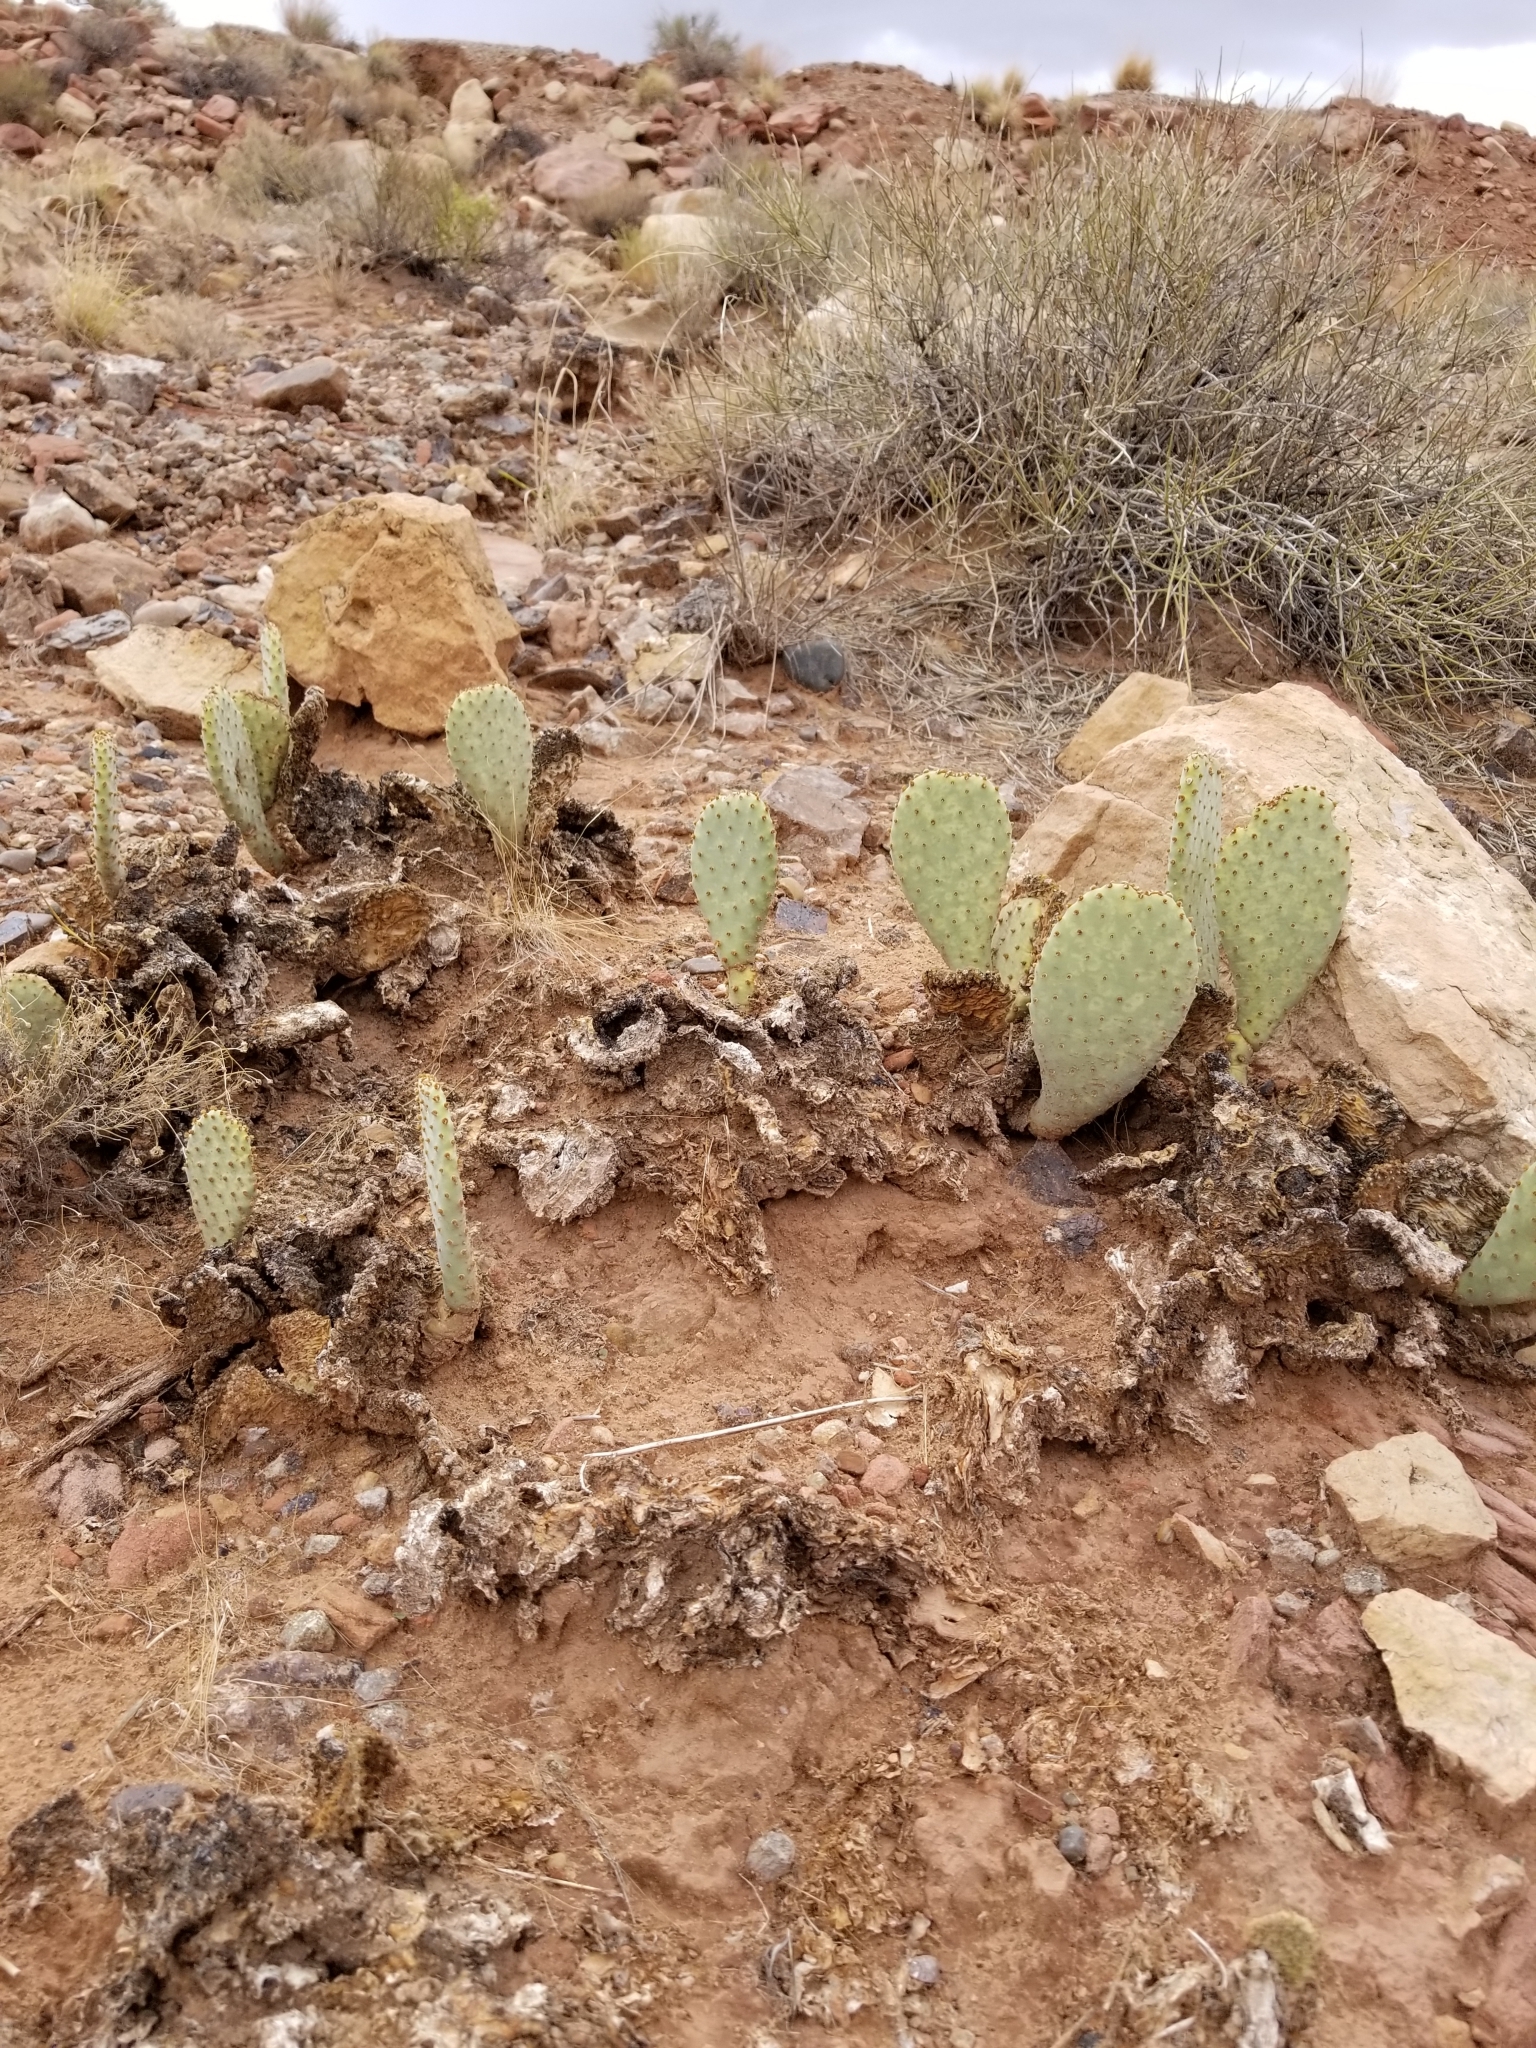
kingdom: Plantae
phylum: Tracheophyta
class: Magnoliopsida
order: Caryophyllales
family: Cactaceae
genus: Opuntia
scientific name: Opuntia basilaris
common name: Beavertail prickly-pear
